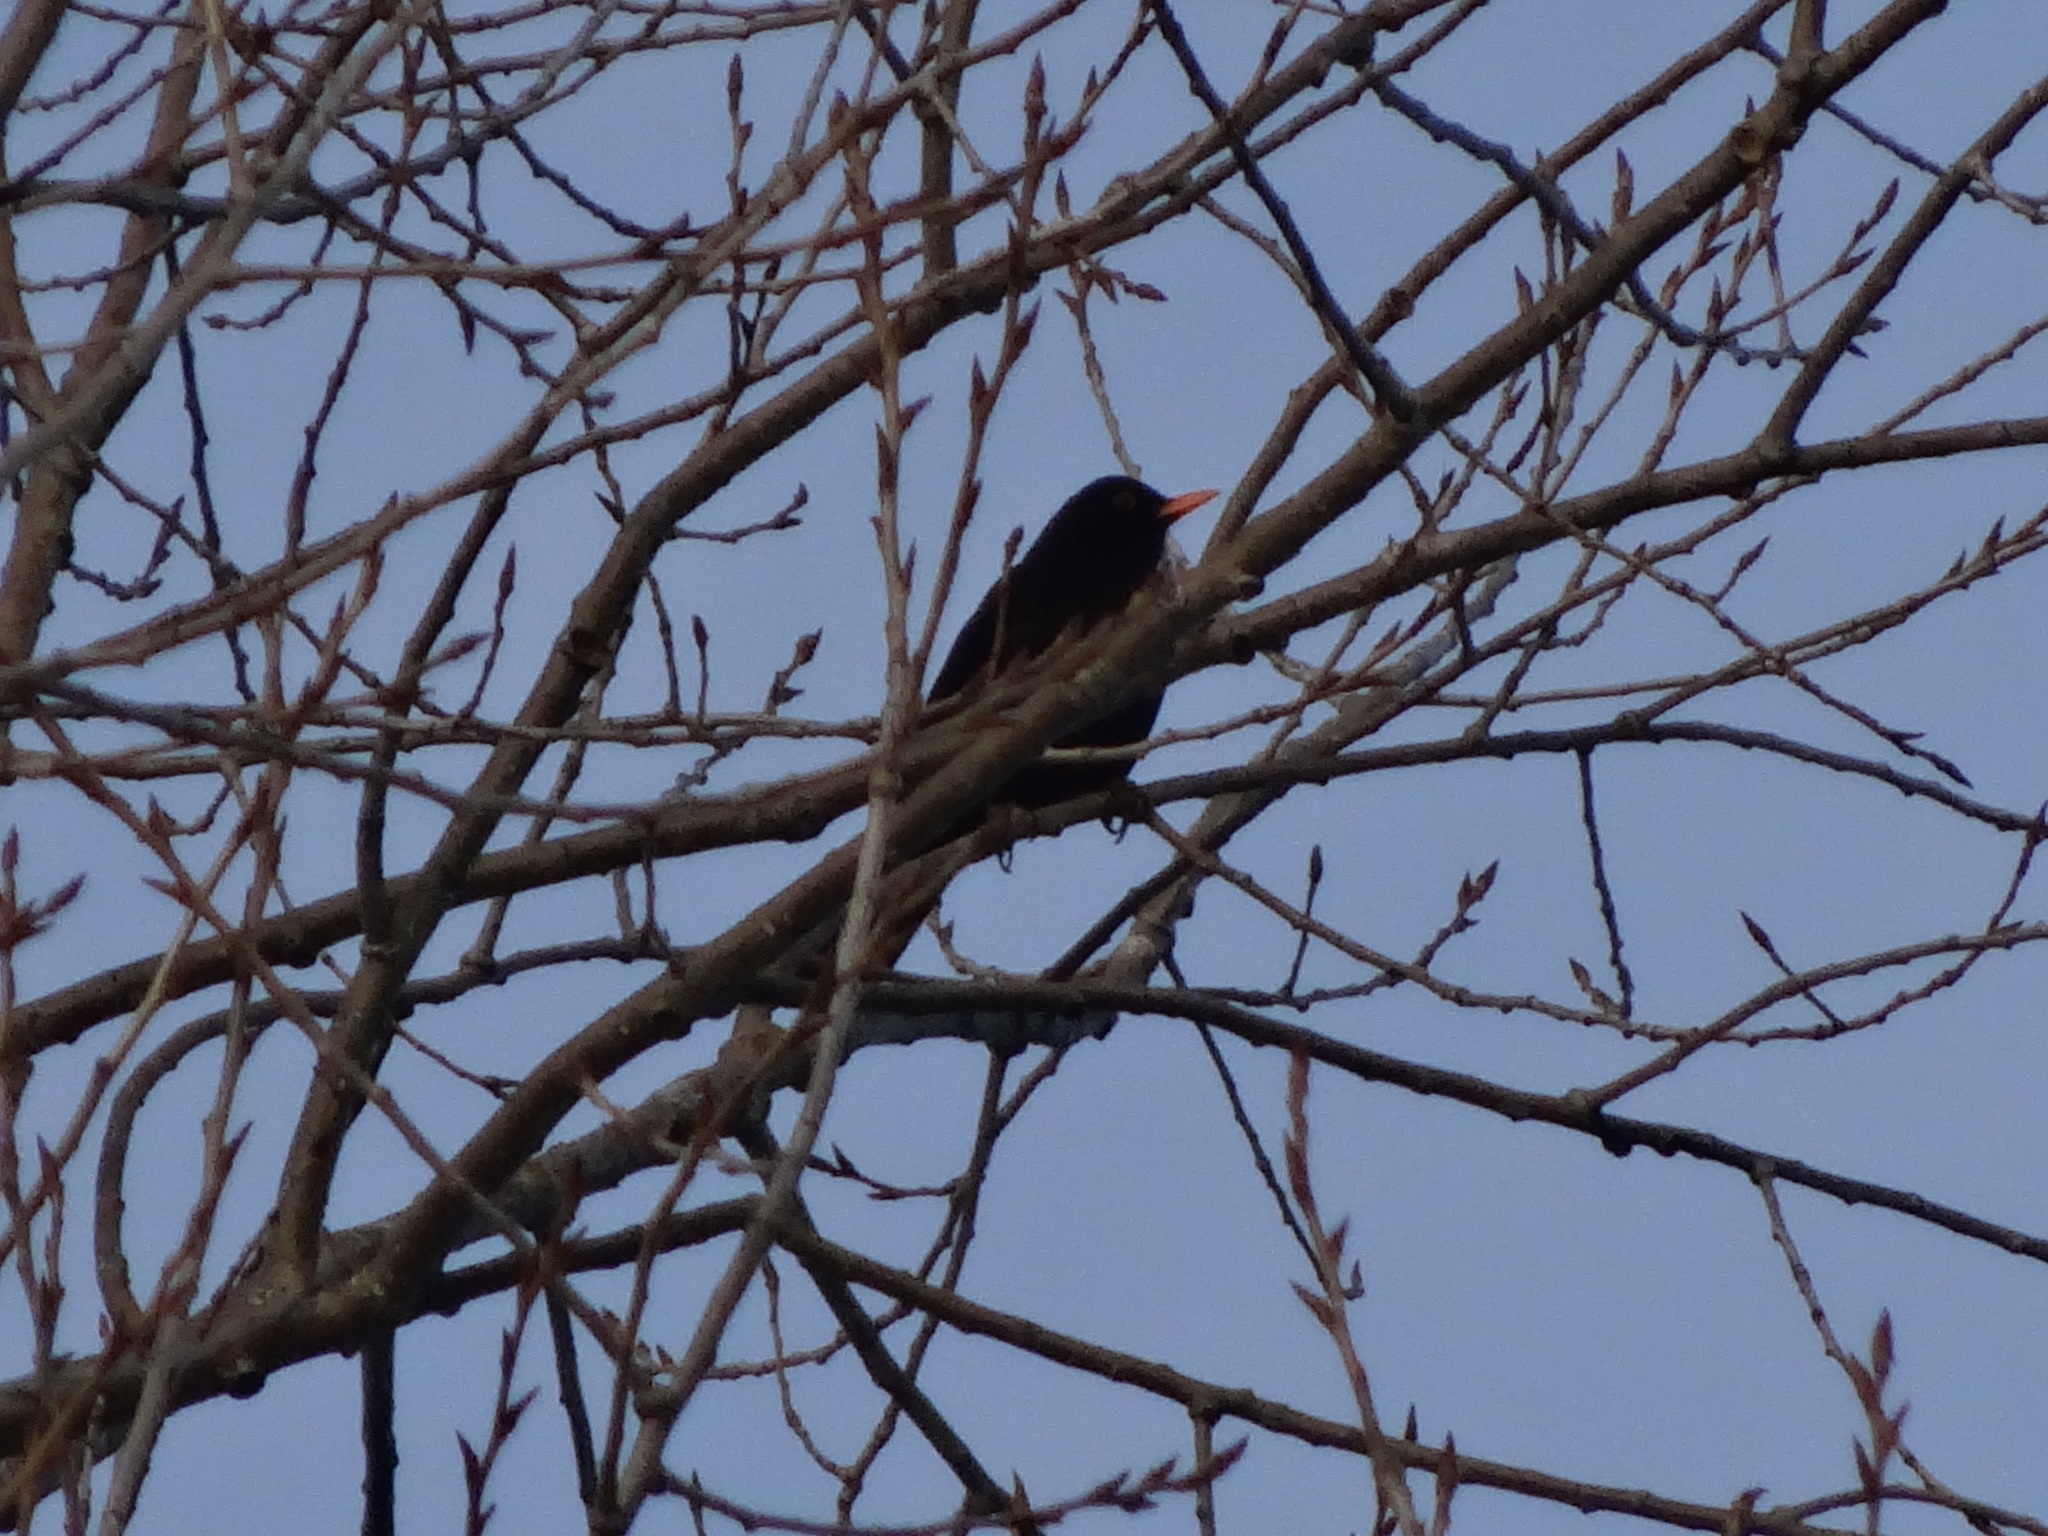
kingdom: Animalia
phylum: Chordata
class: Aves
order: Passeriformes
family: Turdidae
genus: Turdus
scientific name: Turdus merula
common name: Common blackbird
